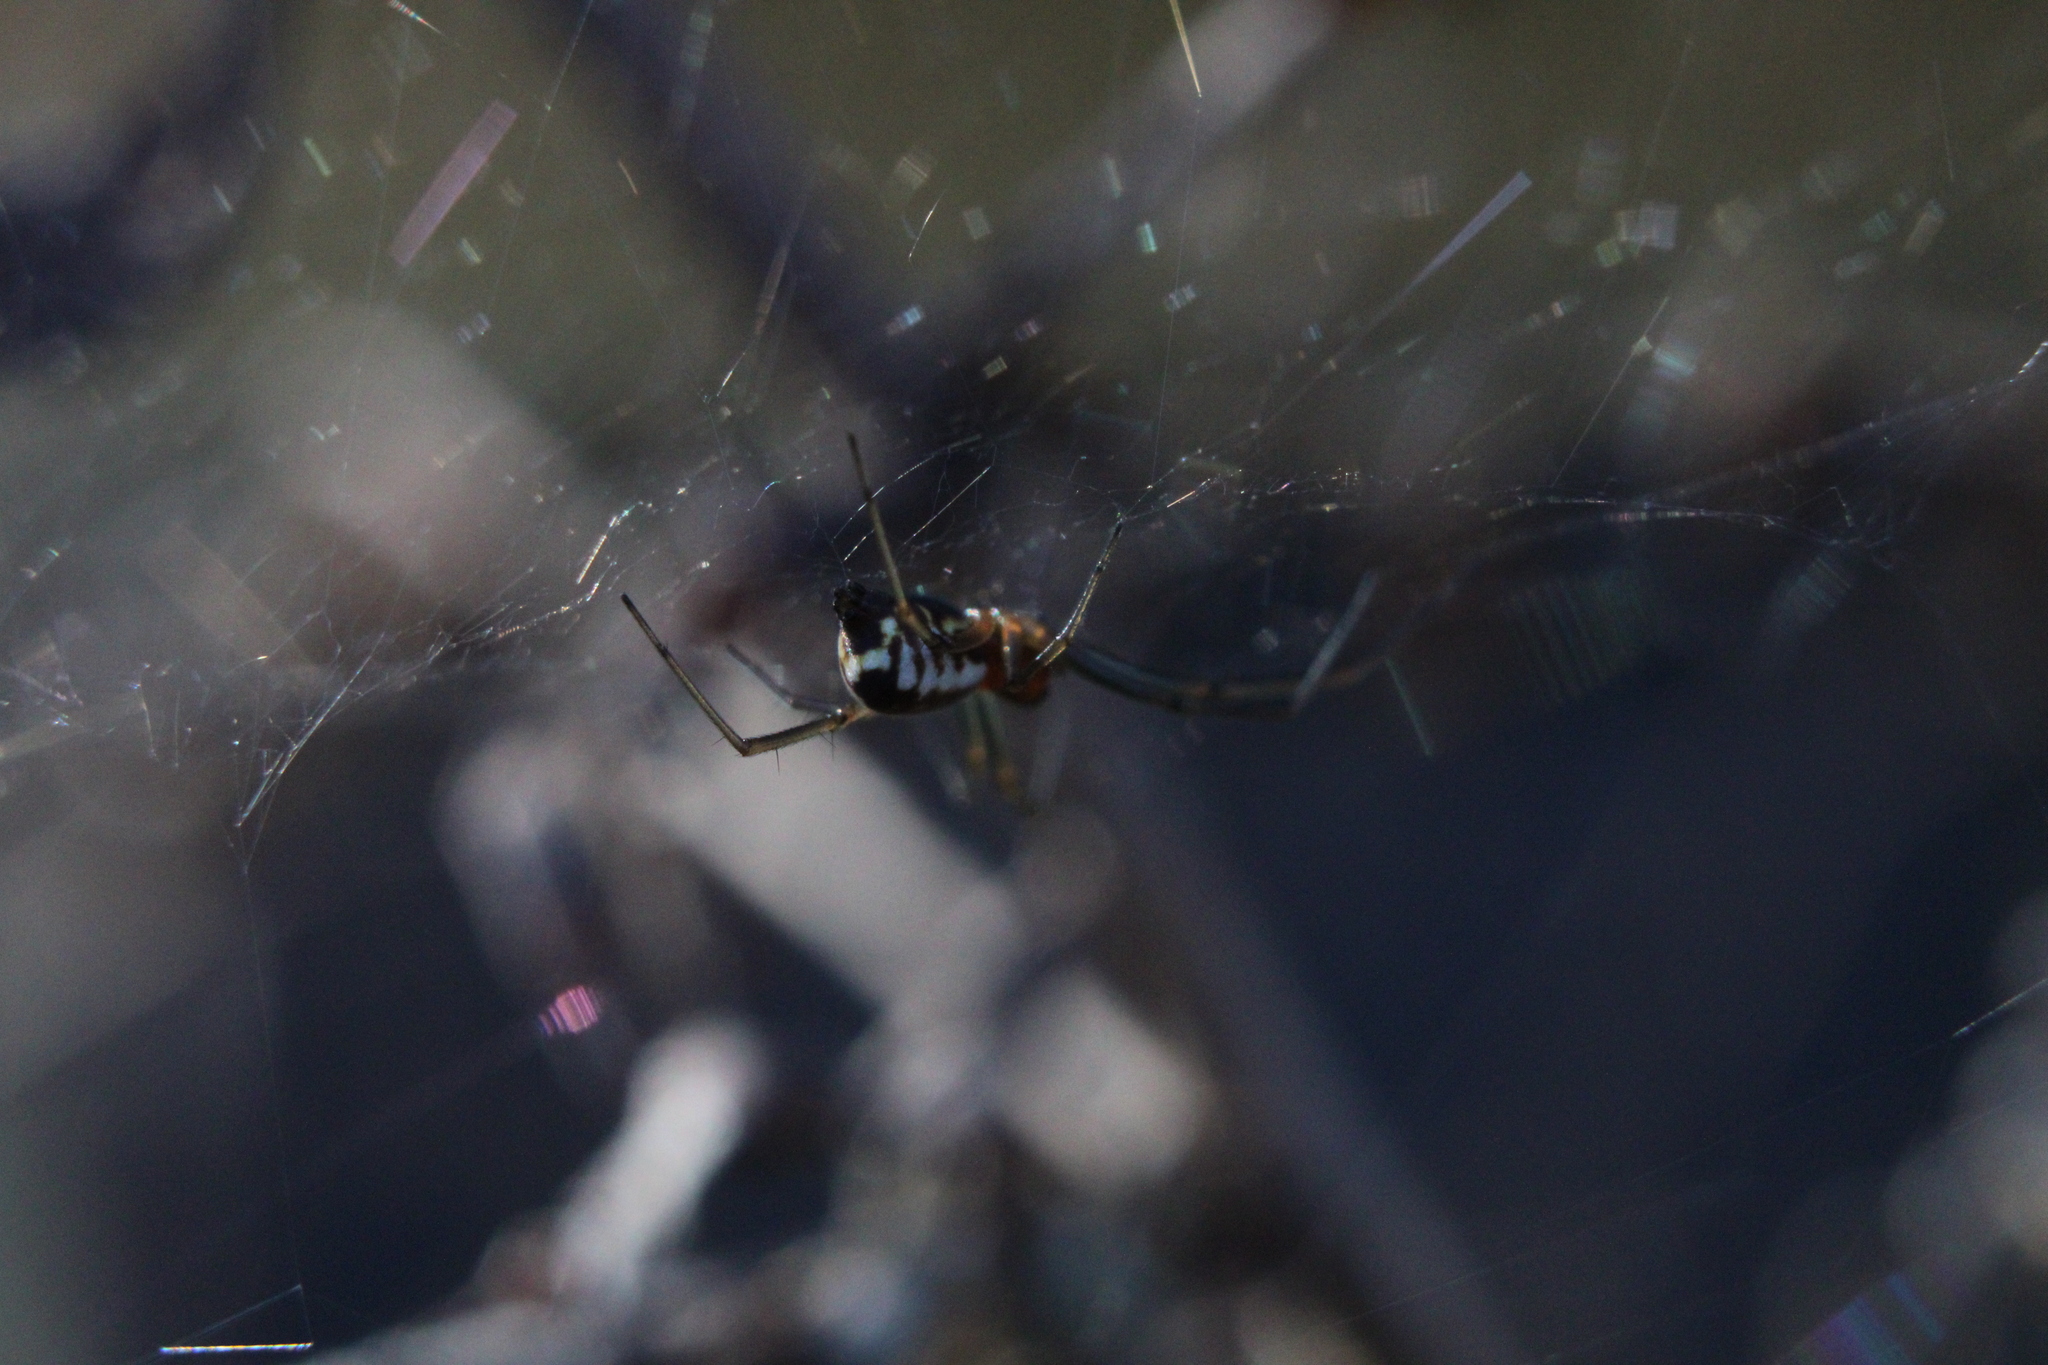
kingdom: Animalia
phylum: Arthropoda
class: Arachnida
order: Araneae
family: Linyphiidae
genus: Frontinella
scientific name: Frontinella pyramitela
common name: Bowl-and-doily spider
